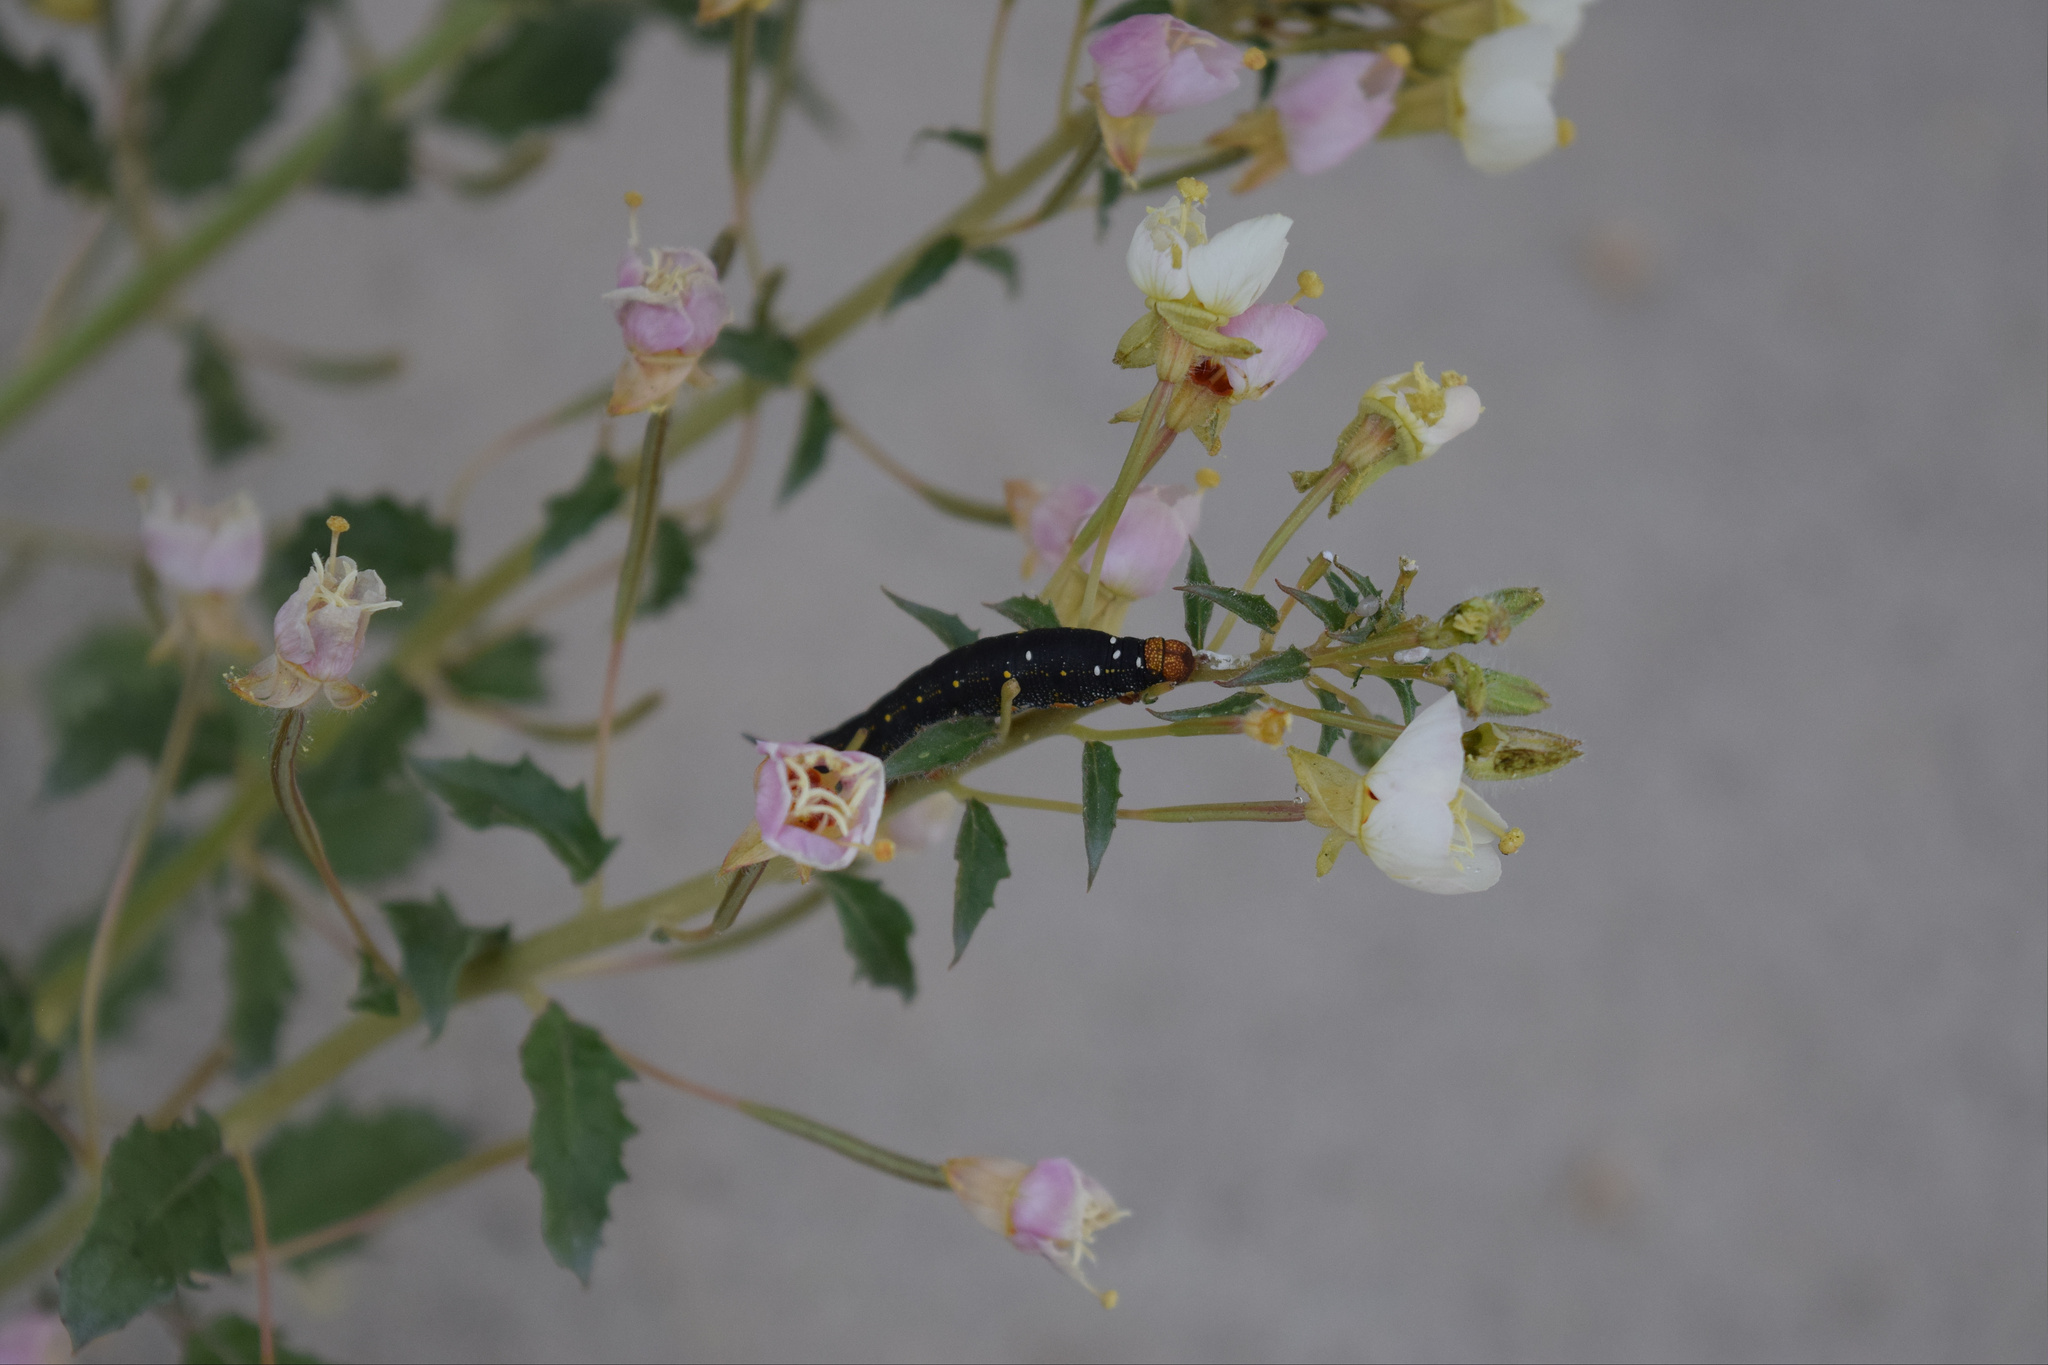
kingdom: Animalia
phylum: Arthropoda
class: Insecta
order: Lepidoptera
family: Sphingidae
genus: Hyles
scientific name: Hyles lineata
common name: White-lined sphinx
